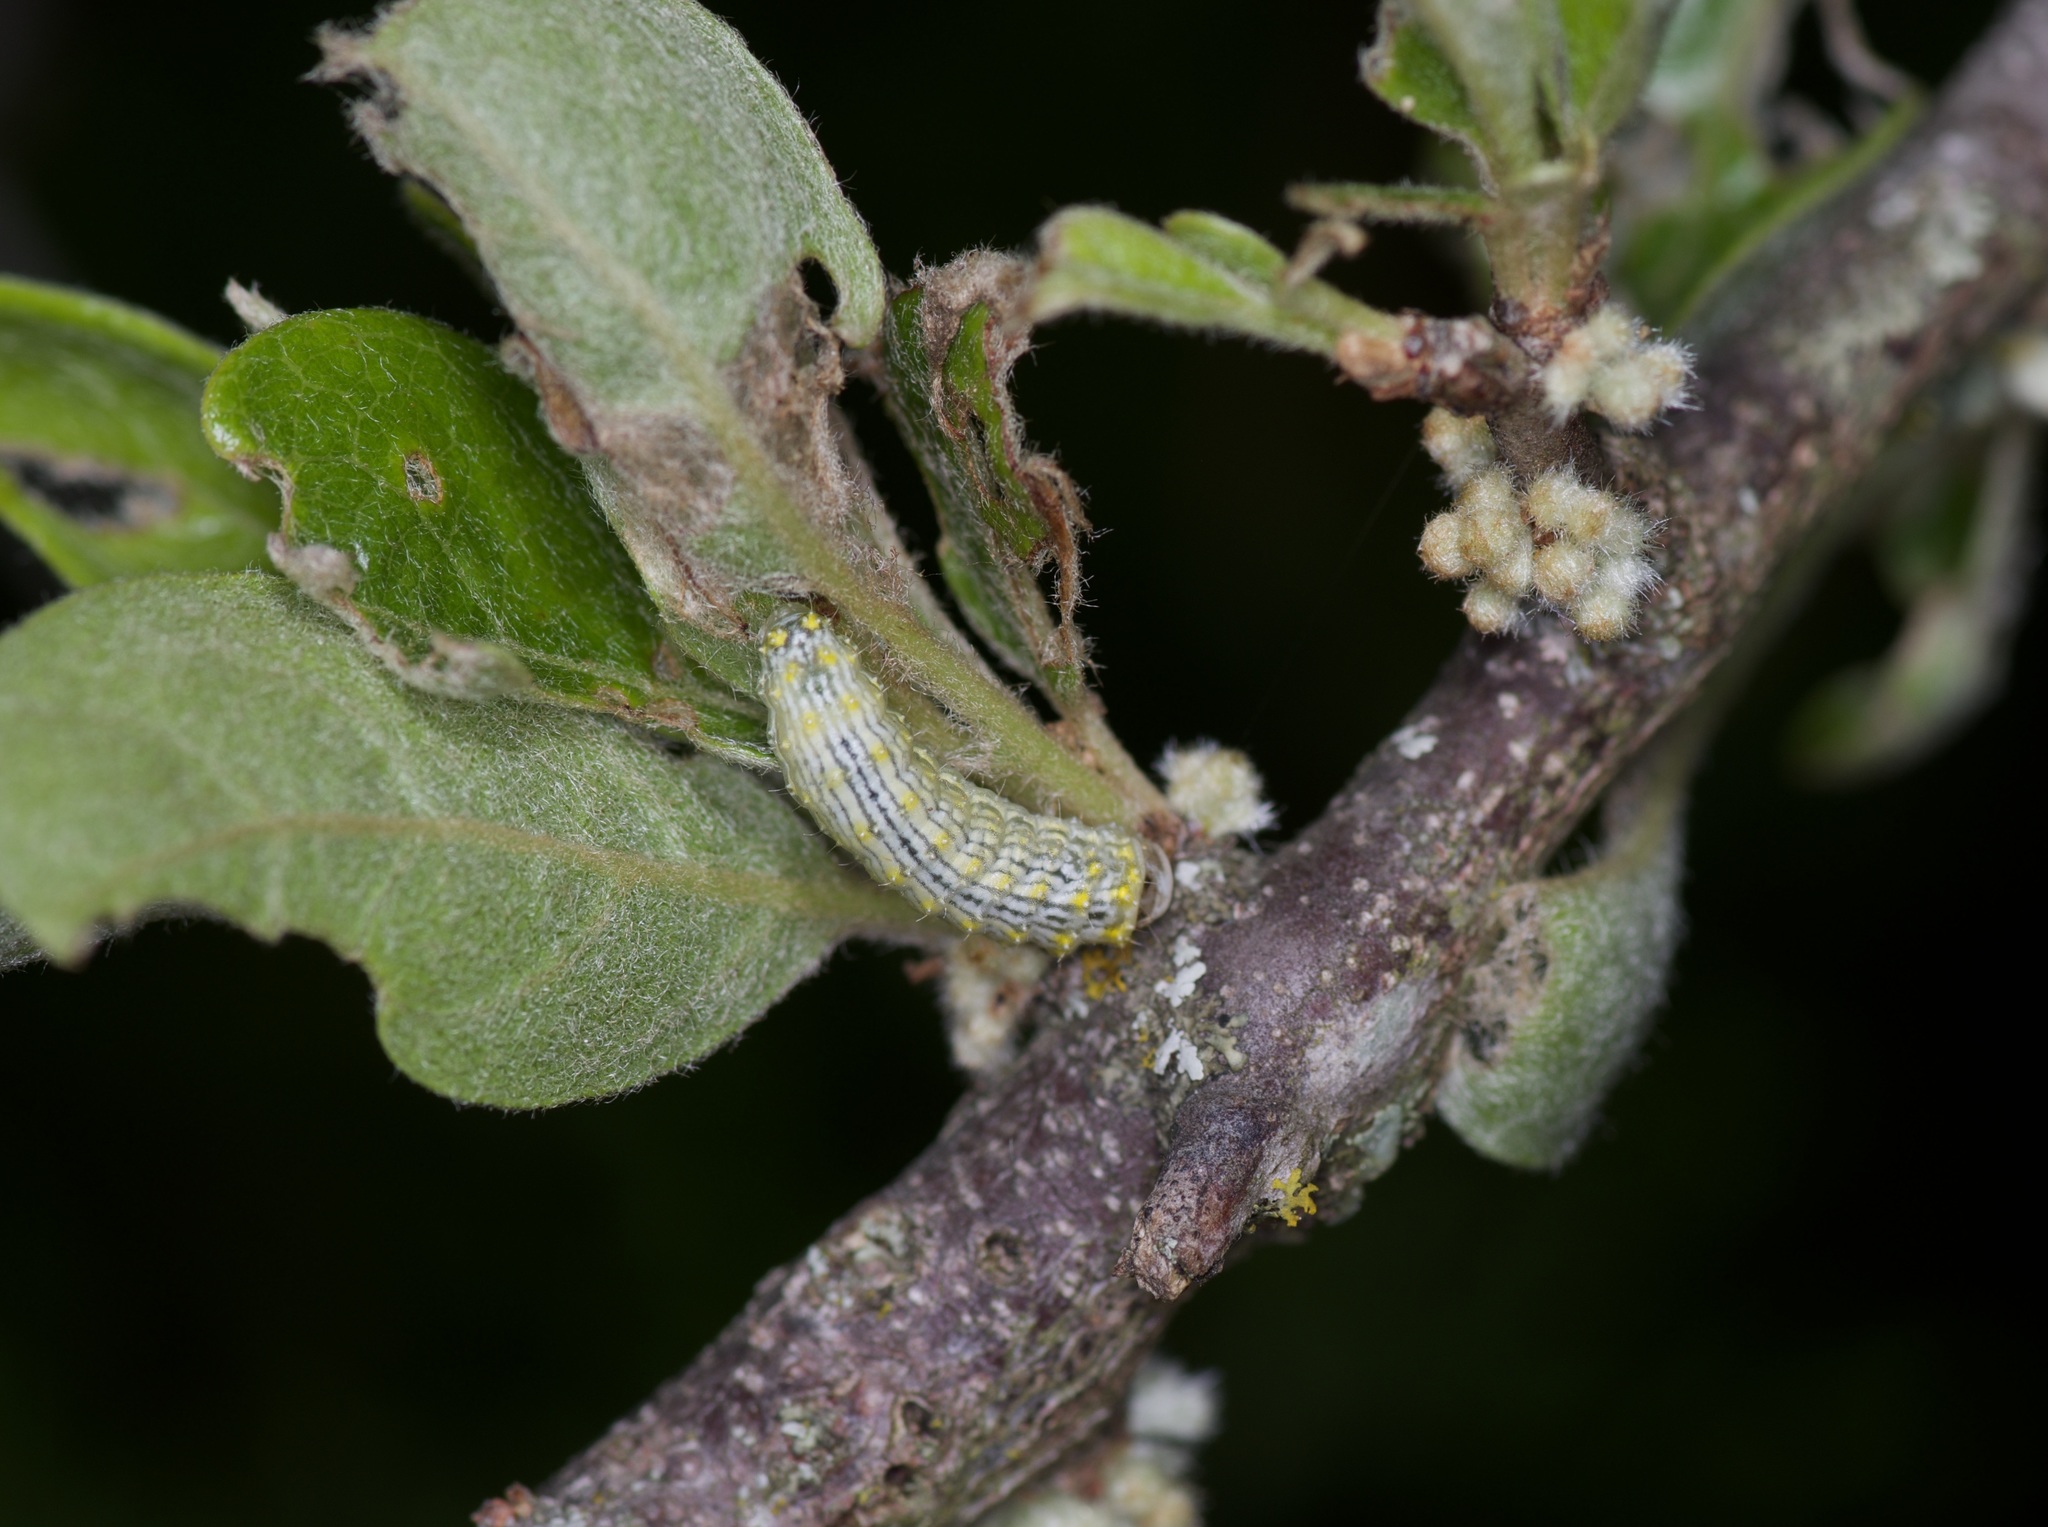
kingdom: Animalia
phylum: Arthropoda
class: Insecta
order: Lepidoptera
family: Lacturidae
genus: Lactura
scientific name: Lactura
